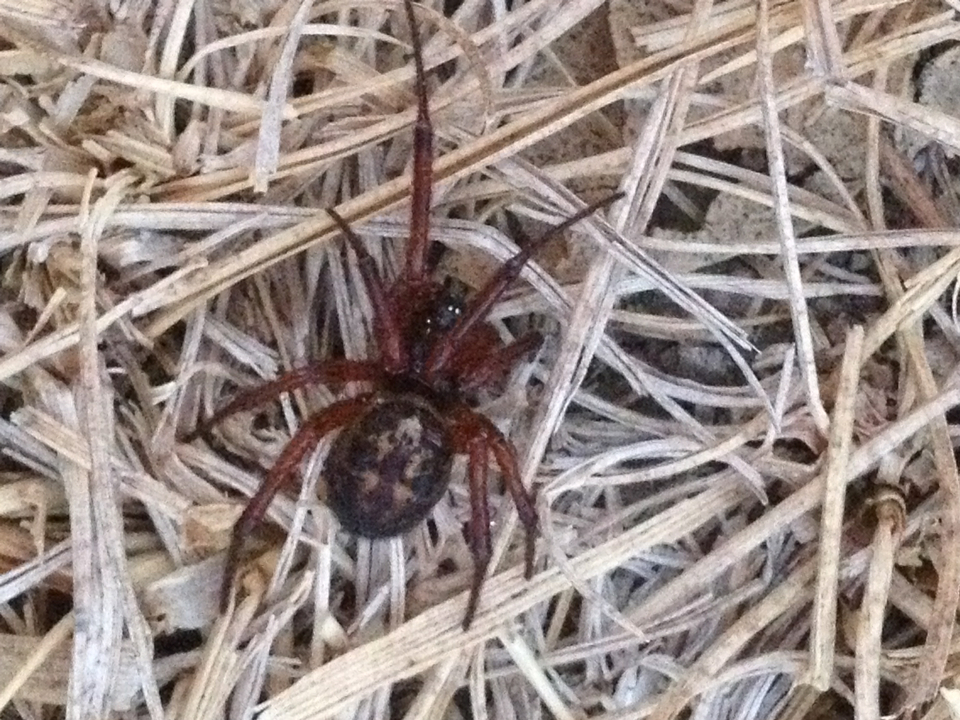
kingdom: Animalia
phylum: Arthropoda
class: Arachnida
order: Araneae
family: Theridiidae
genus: Steatoda
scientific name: Steatoda nobilis
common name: Cobweb weaver
